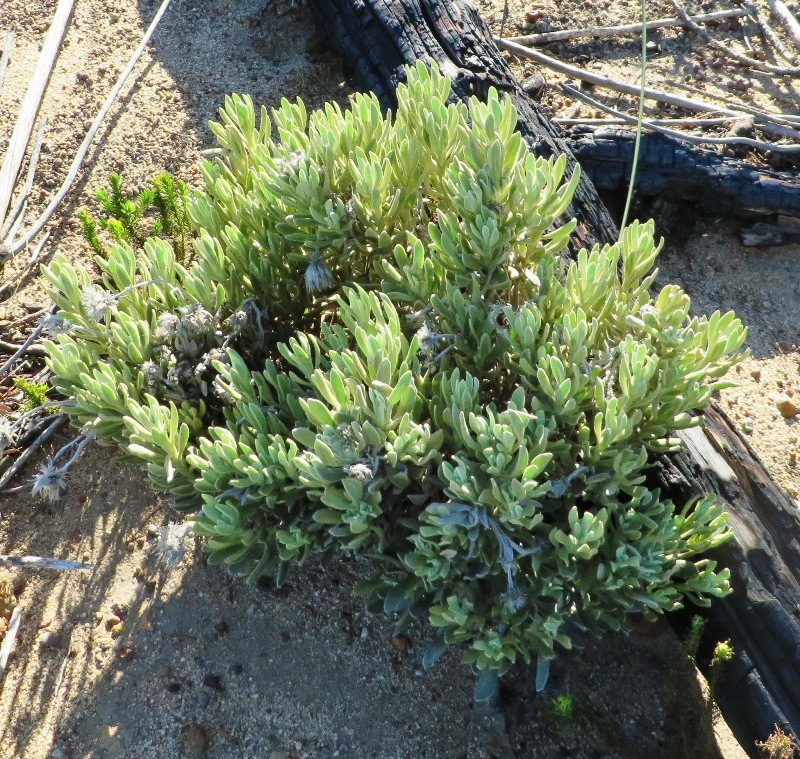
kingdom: Plantae
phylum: Tracheophyta
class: Magnoliopsida
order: Asterales
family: Asteraceae
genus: Syncarpha
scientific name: Syncarpha speciosissima
